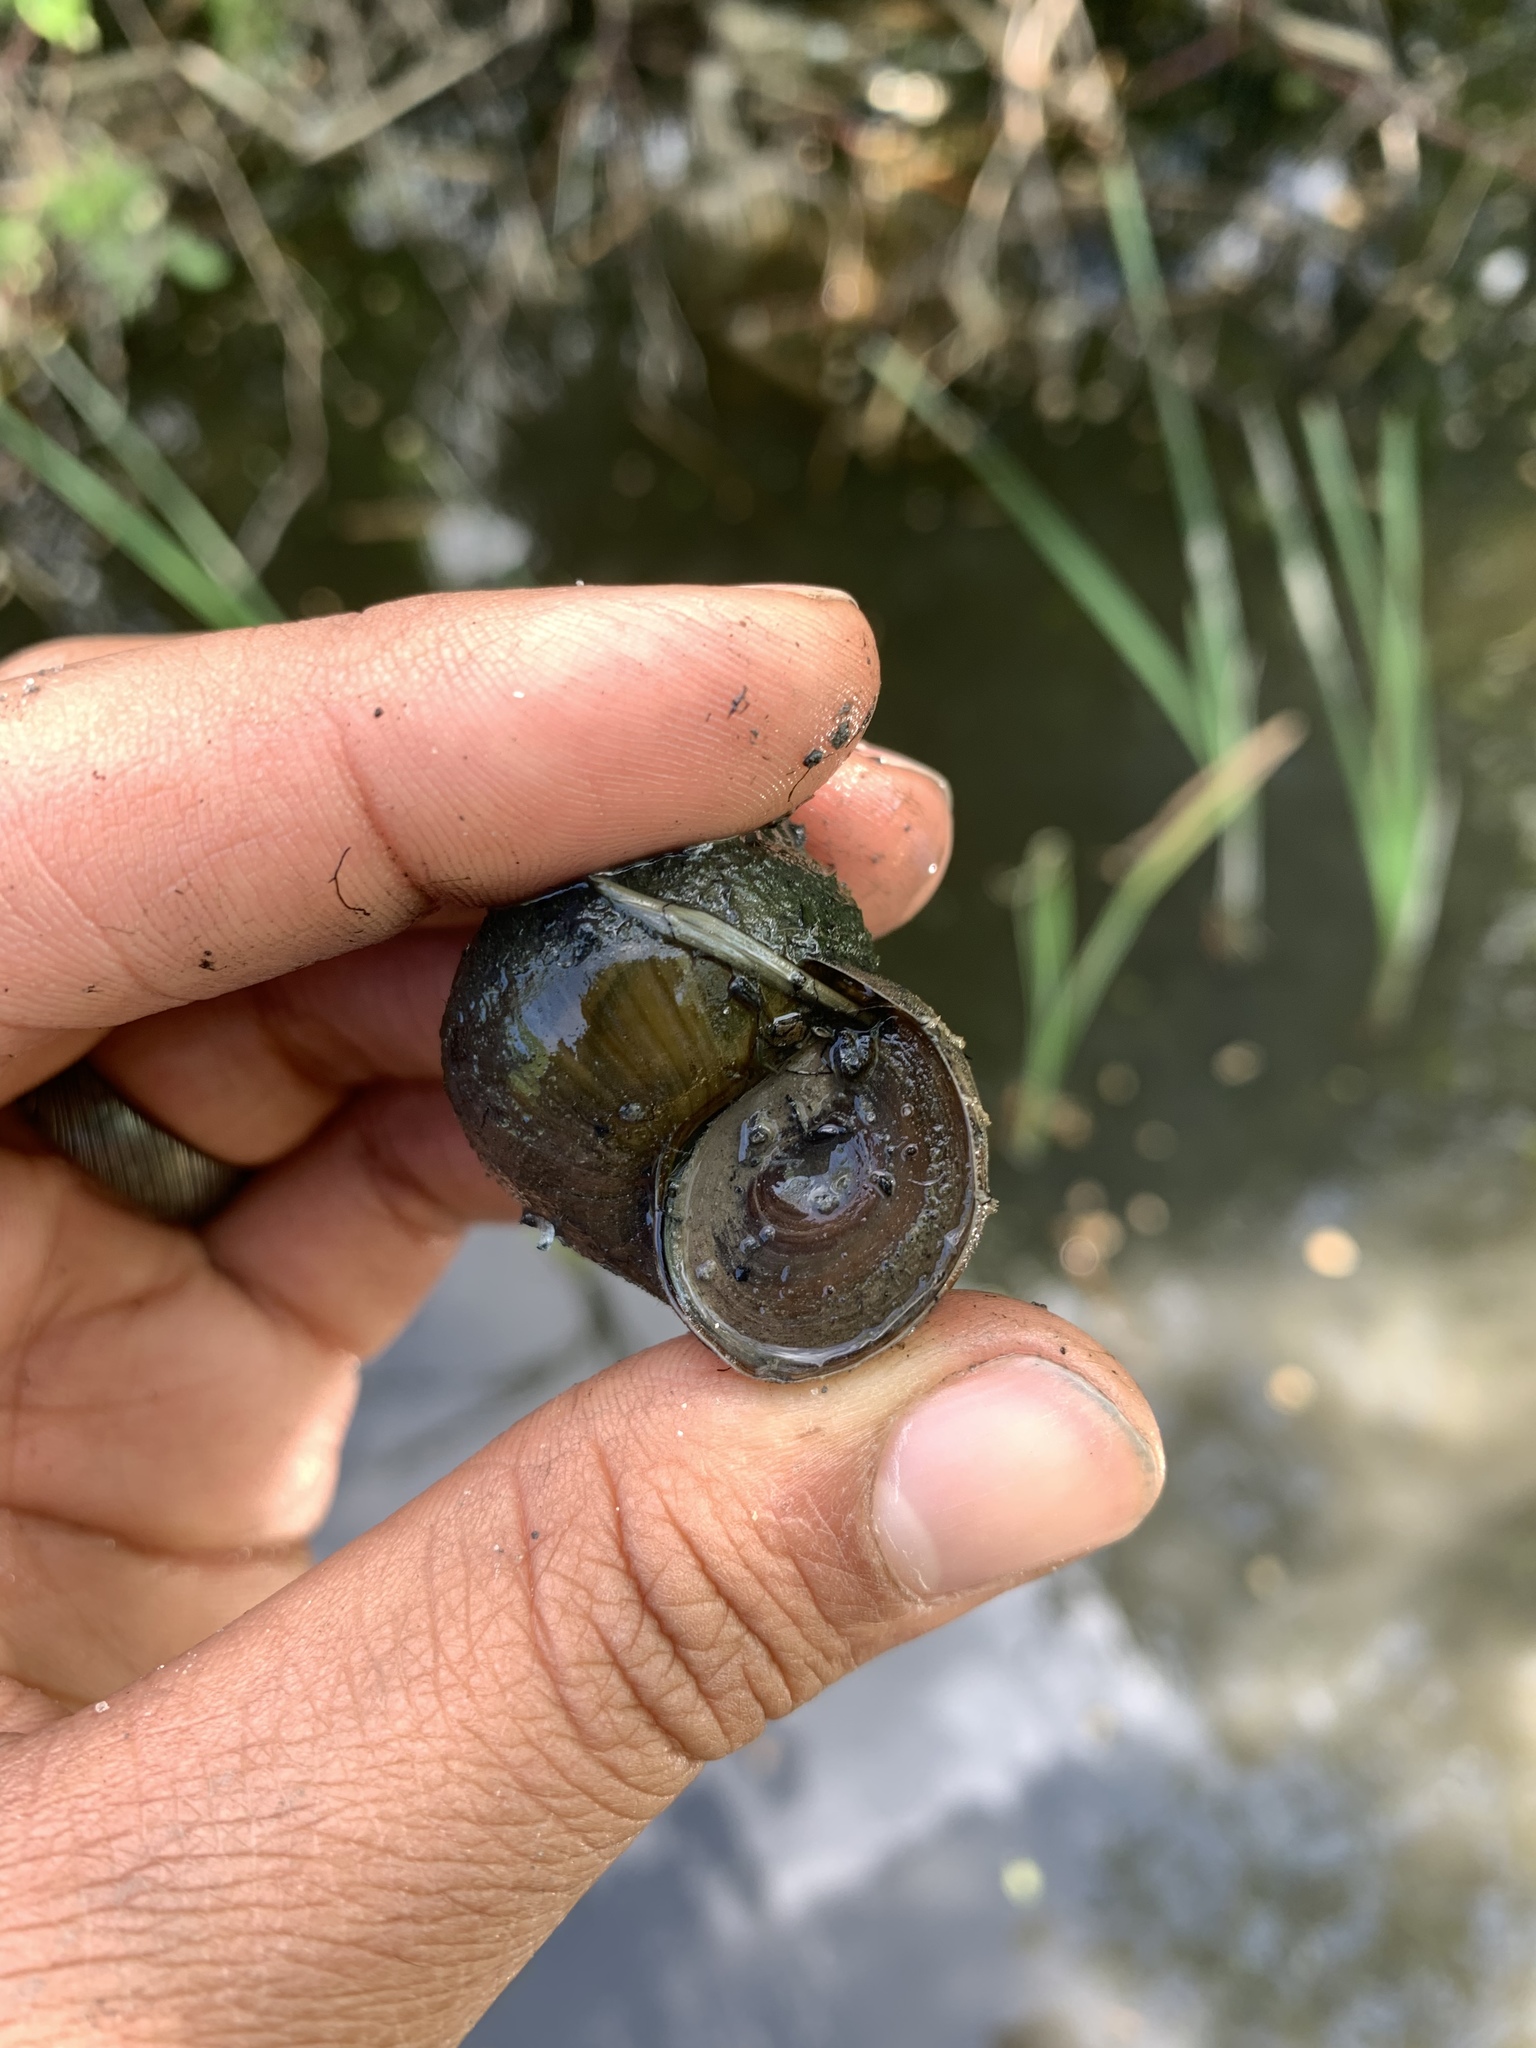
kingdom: Animalia
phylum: Mollusca
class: Gastropoda
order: Architaenioglossa
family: Viviparidae
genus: Cipangopaludina
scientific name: Cipangopaludina chinensis
